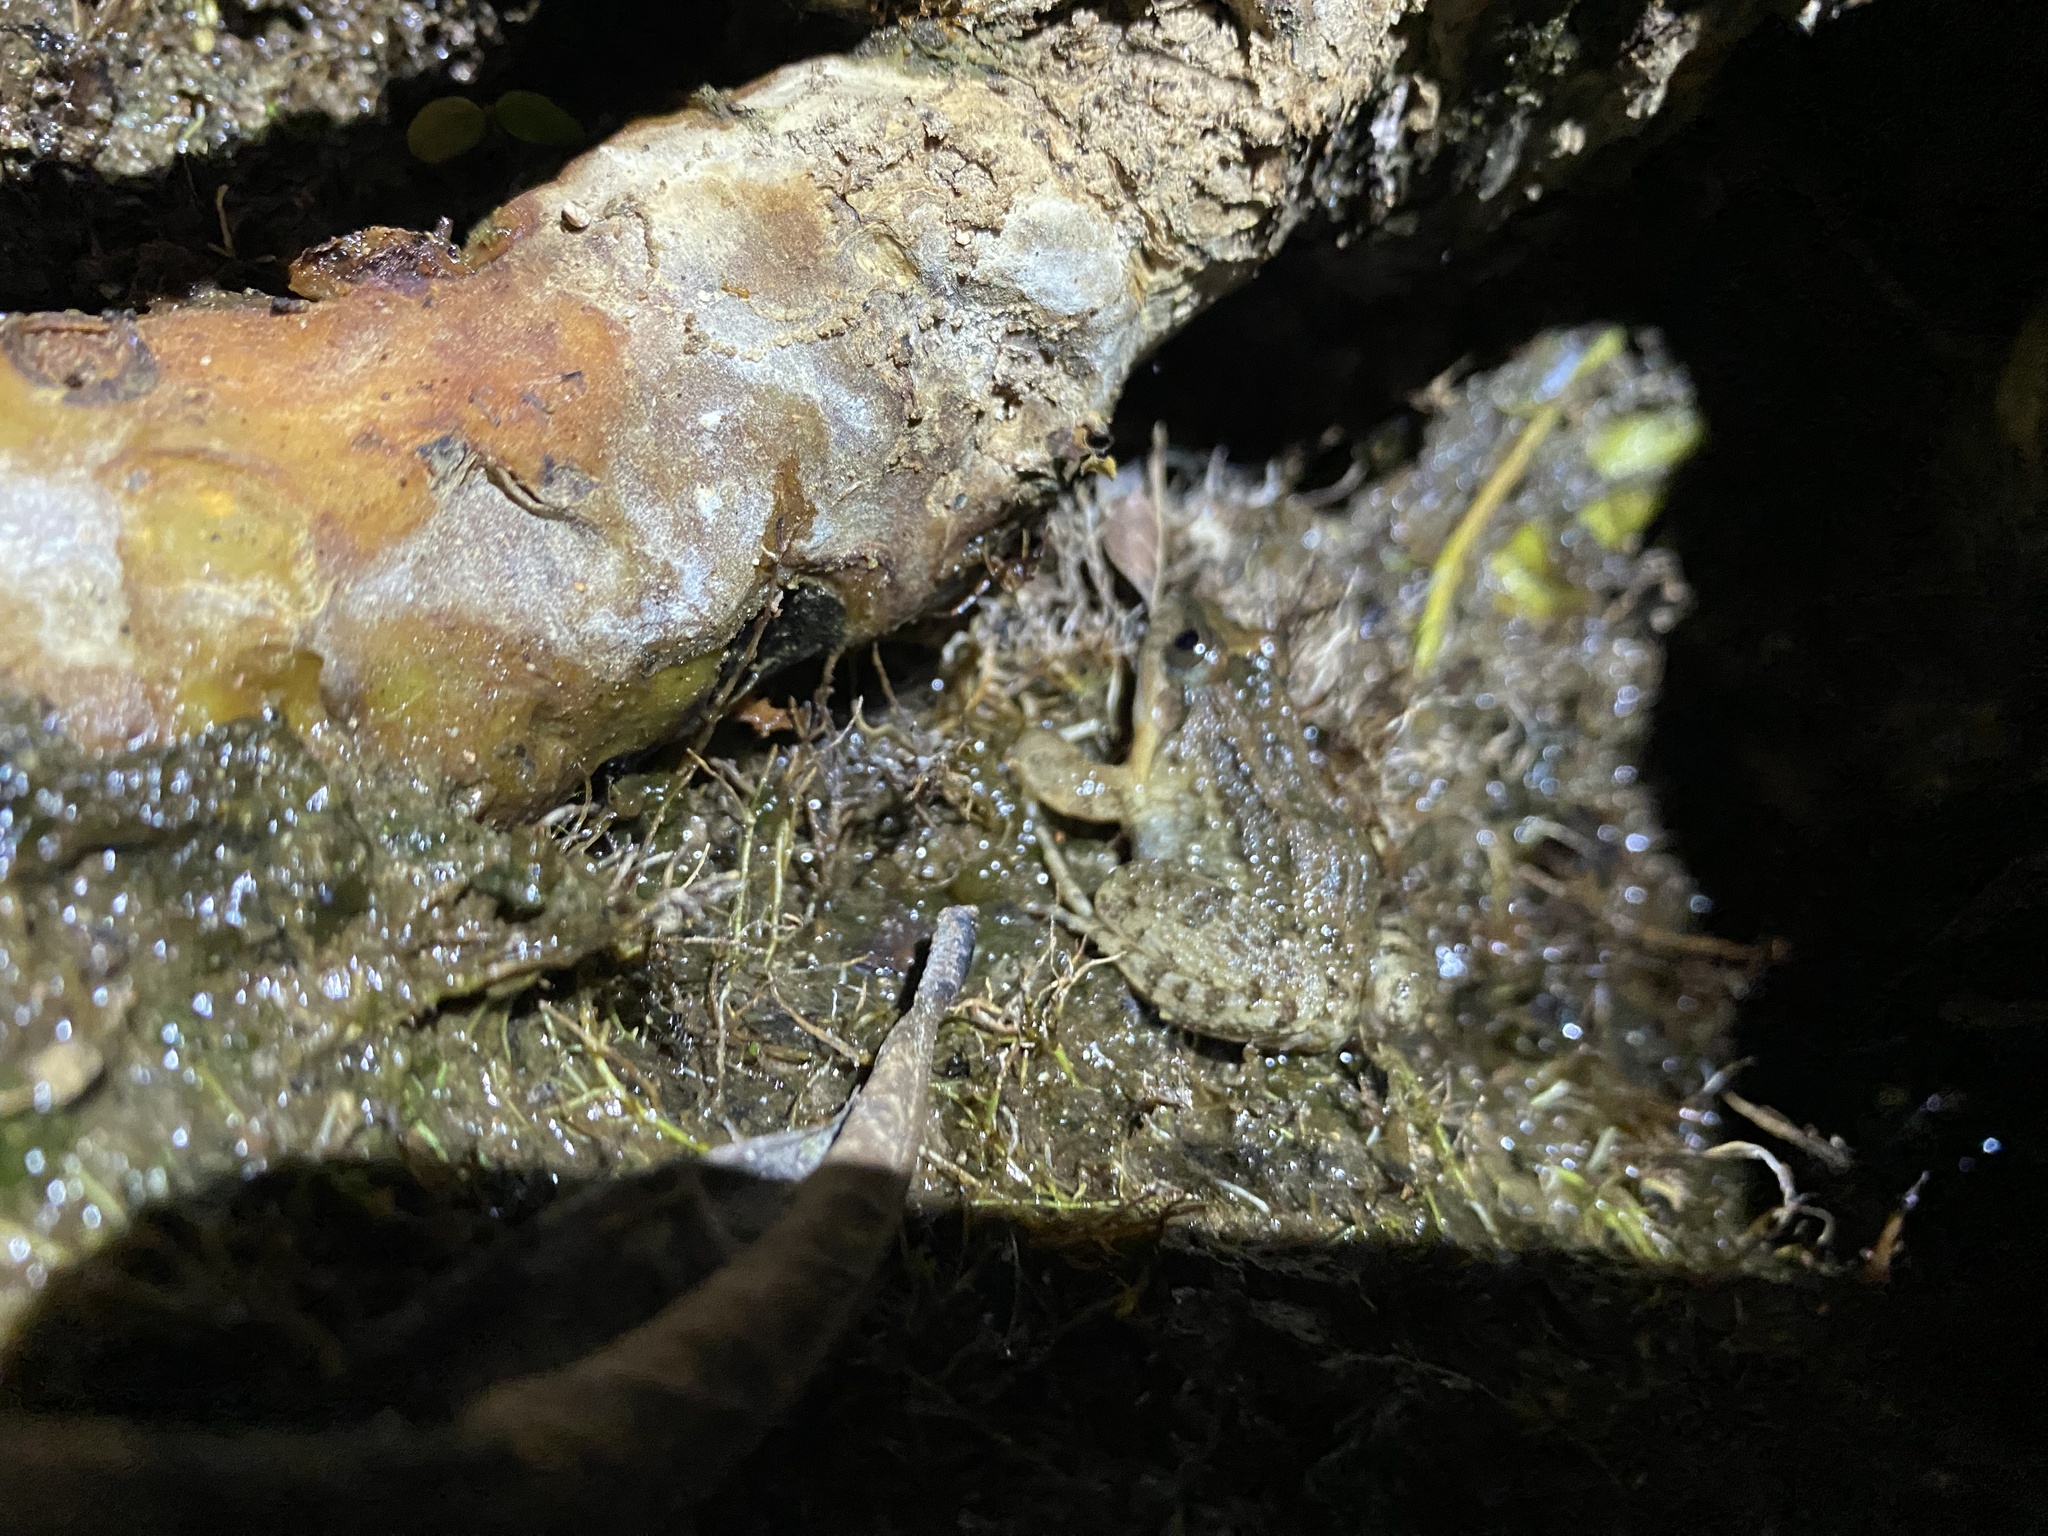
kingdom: Animalia
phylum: Chordata
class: Amphibia
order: Anura
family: Leptodactylidae
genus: Leptodactylus
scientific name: Leptodactylus melanonotus
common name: Fringe-toed foamfrog
